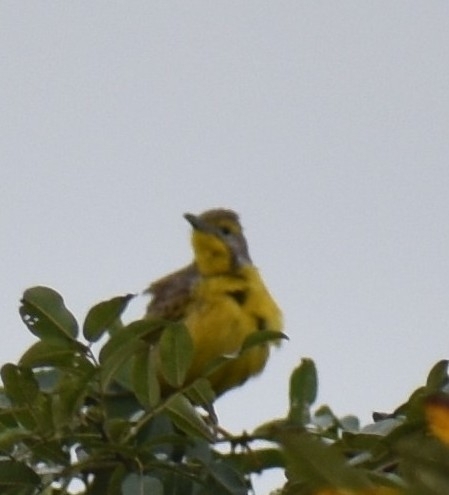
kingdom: Animalia
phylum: Chordata
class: Aves
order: Passeriformes
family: Motacillidae
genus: Macronyx
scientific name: Macronyx croceus
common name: Yellow-throated longclaw
